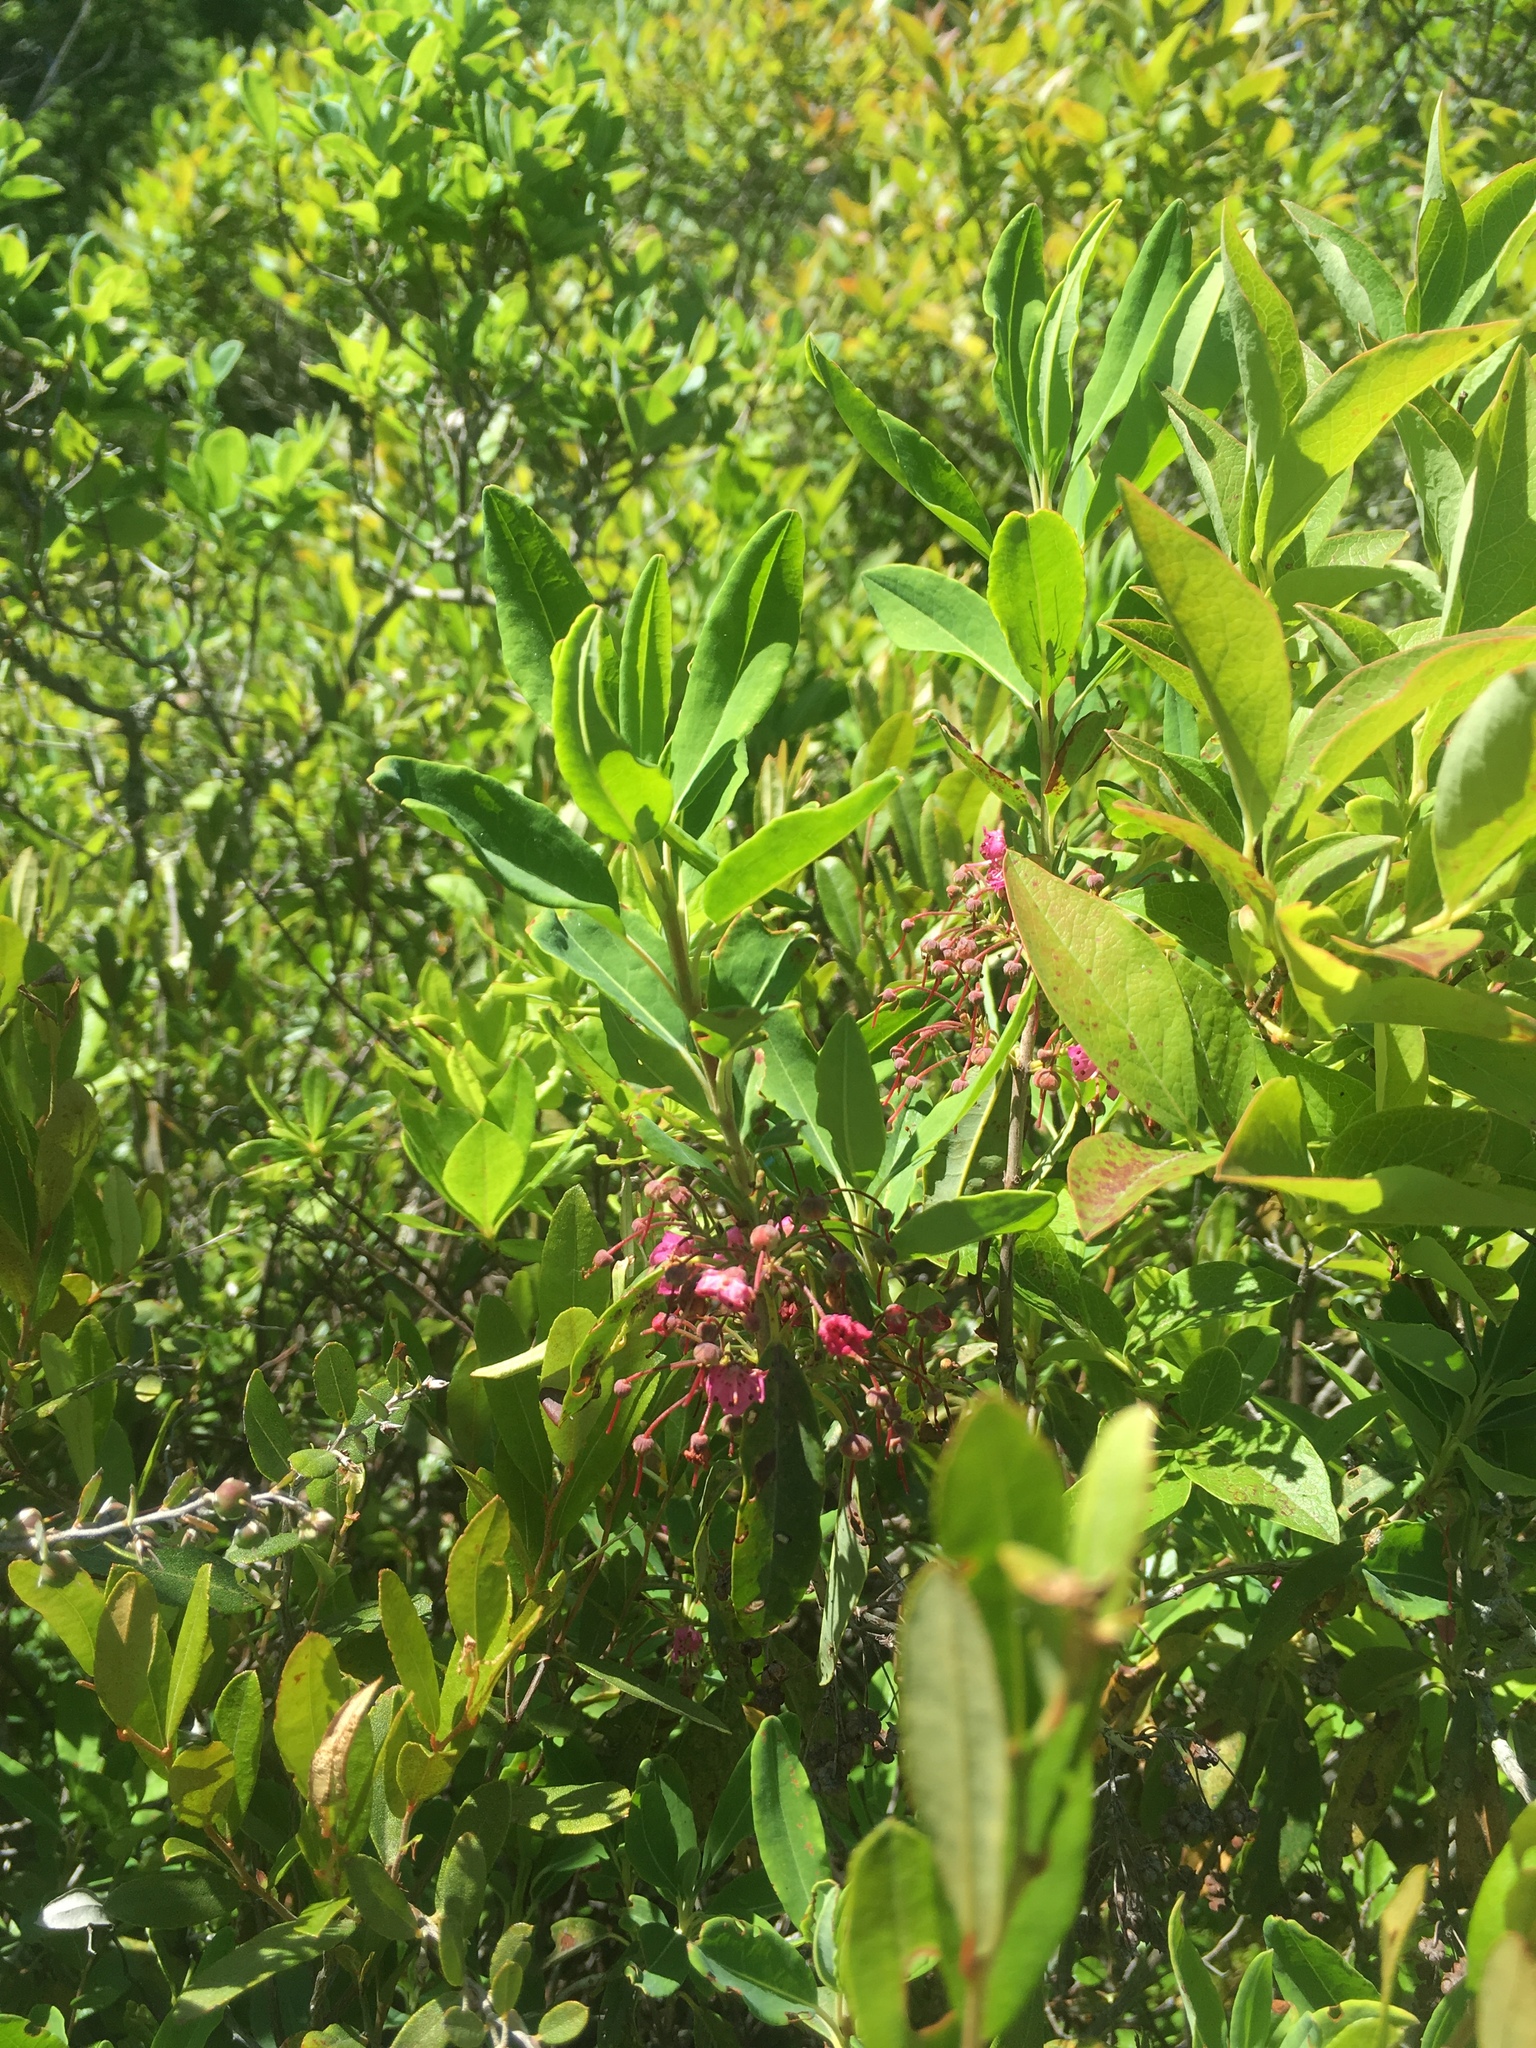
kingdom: Plantae
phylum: Tracheophyta
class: Magnoliopsida
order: Ericales
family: Ericaceae
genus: Kalmia
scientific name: Kalmia angustifolia
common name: Sheep-laurel
